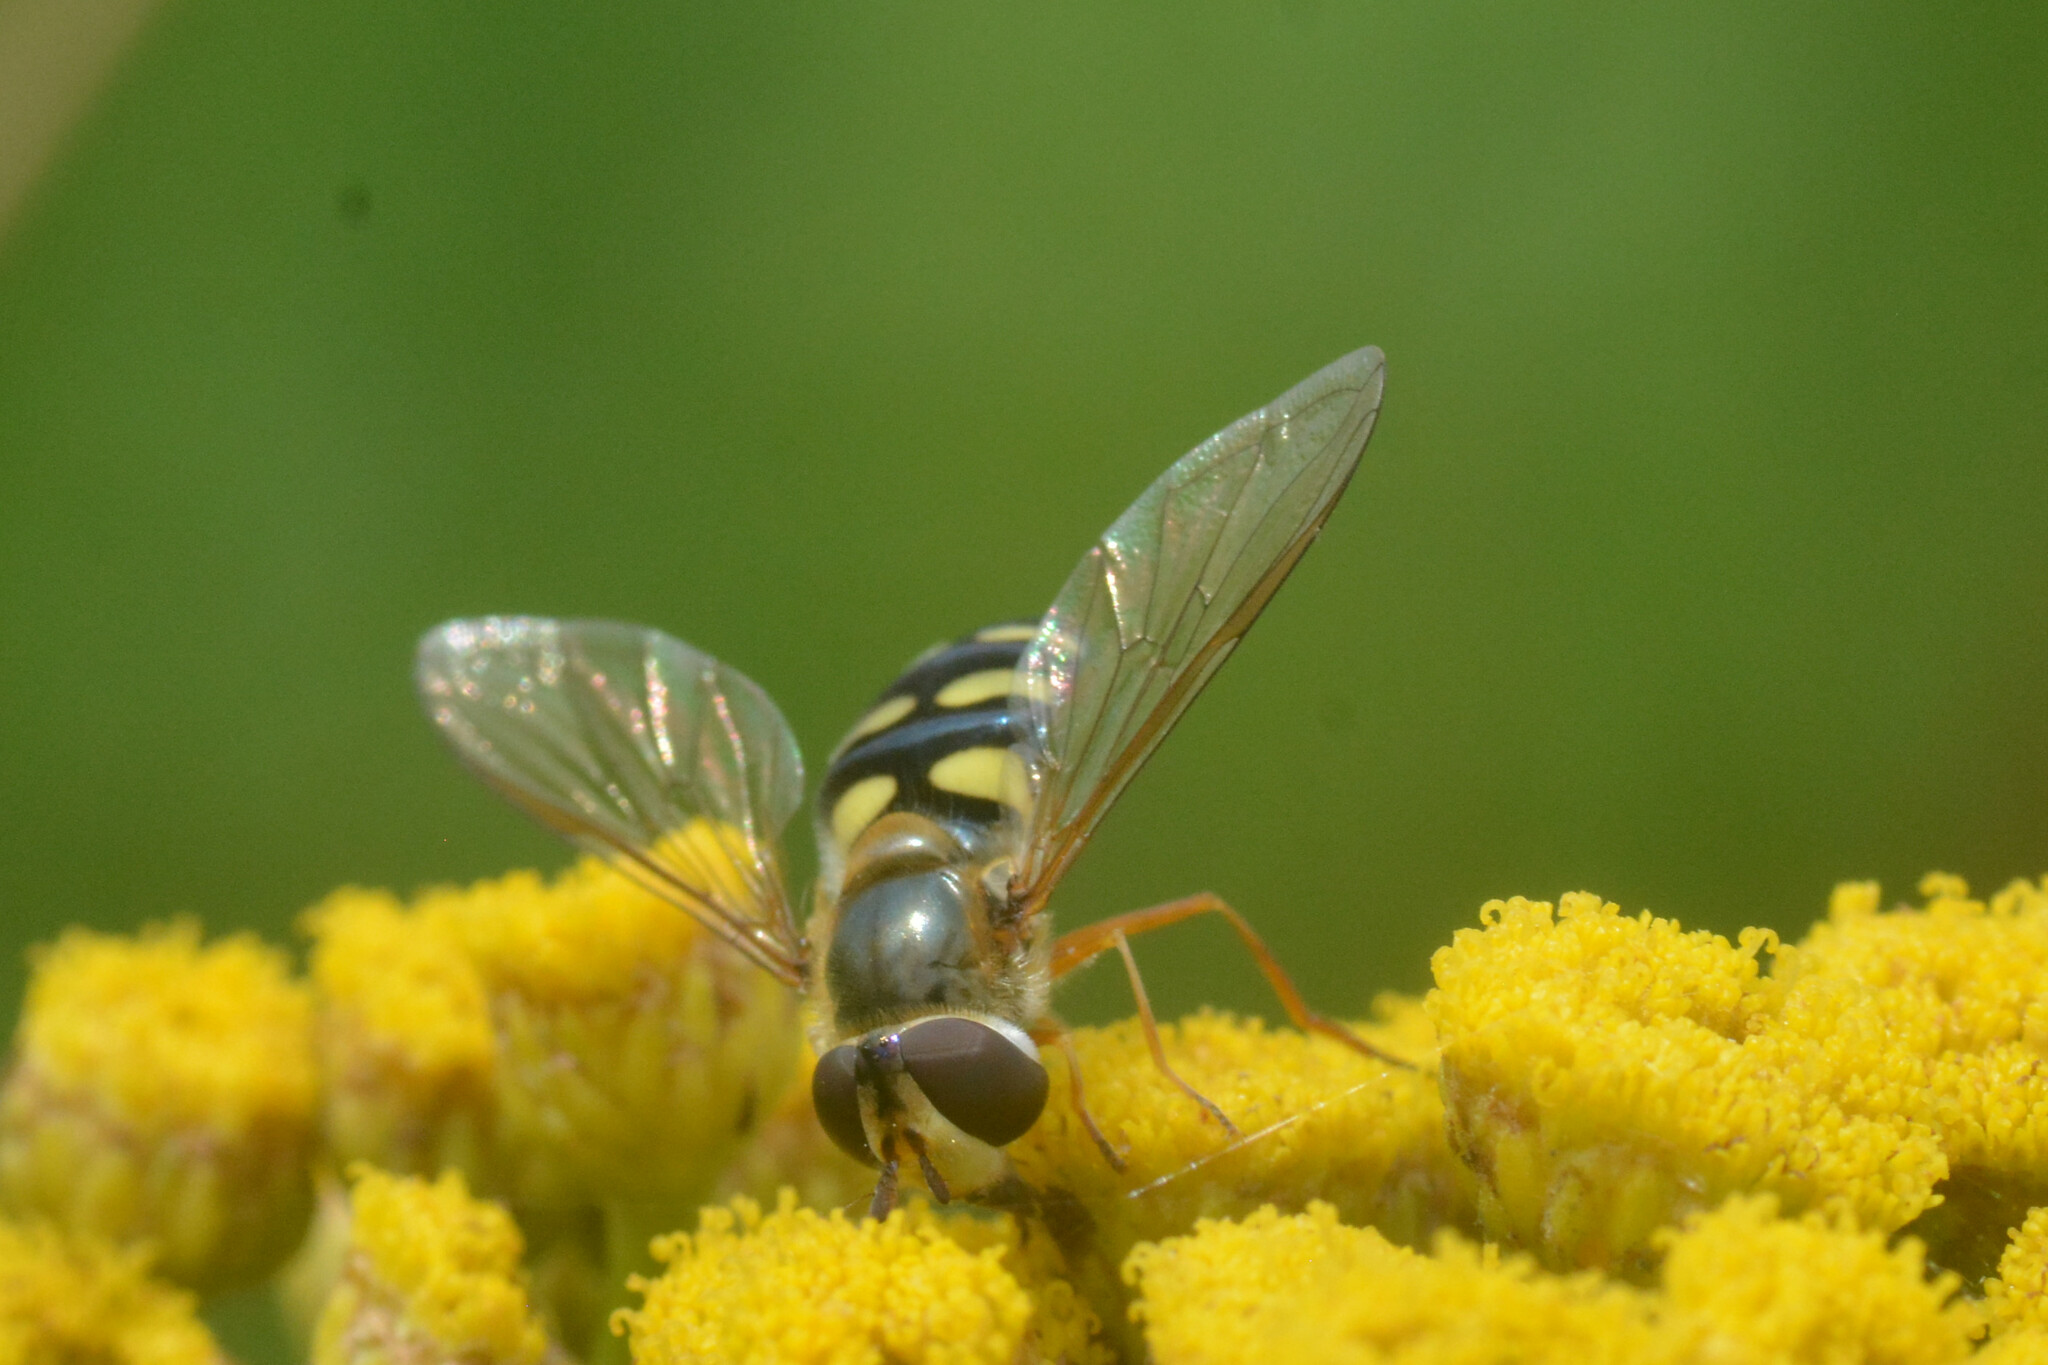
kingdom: Animalia
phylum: Arthropoda
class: Insecta
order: Diptera
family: Syrphidae
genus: Eupeodes
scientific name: Eupeodes luniger
